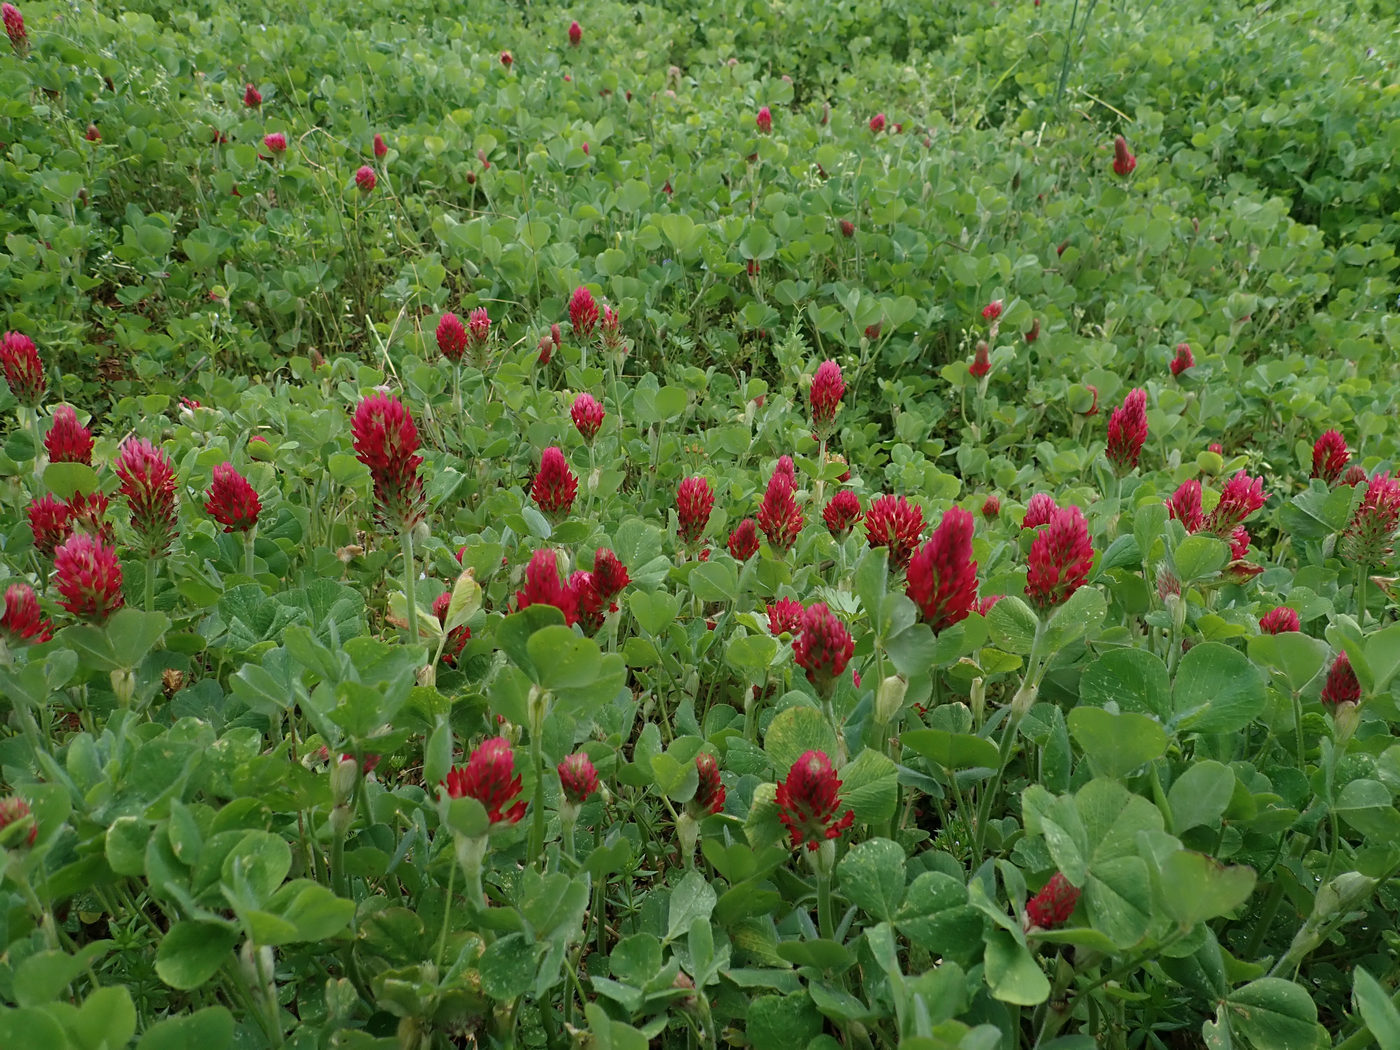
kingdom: Plantae
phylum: Tracheophyta
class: Magnoliopsida
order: Fabales
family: Fabaceae
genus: Trifolium
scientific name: Trifolium incarnatum
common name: Crimson clover
